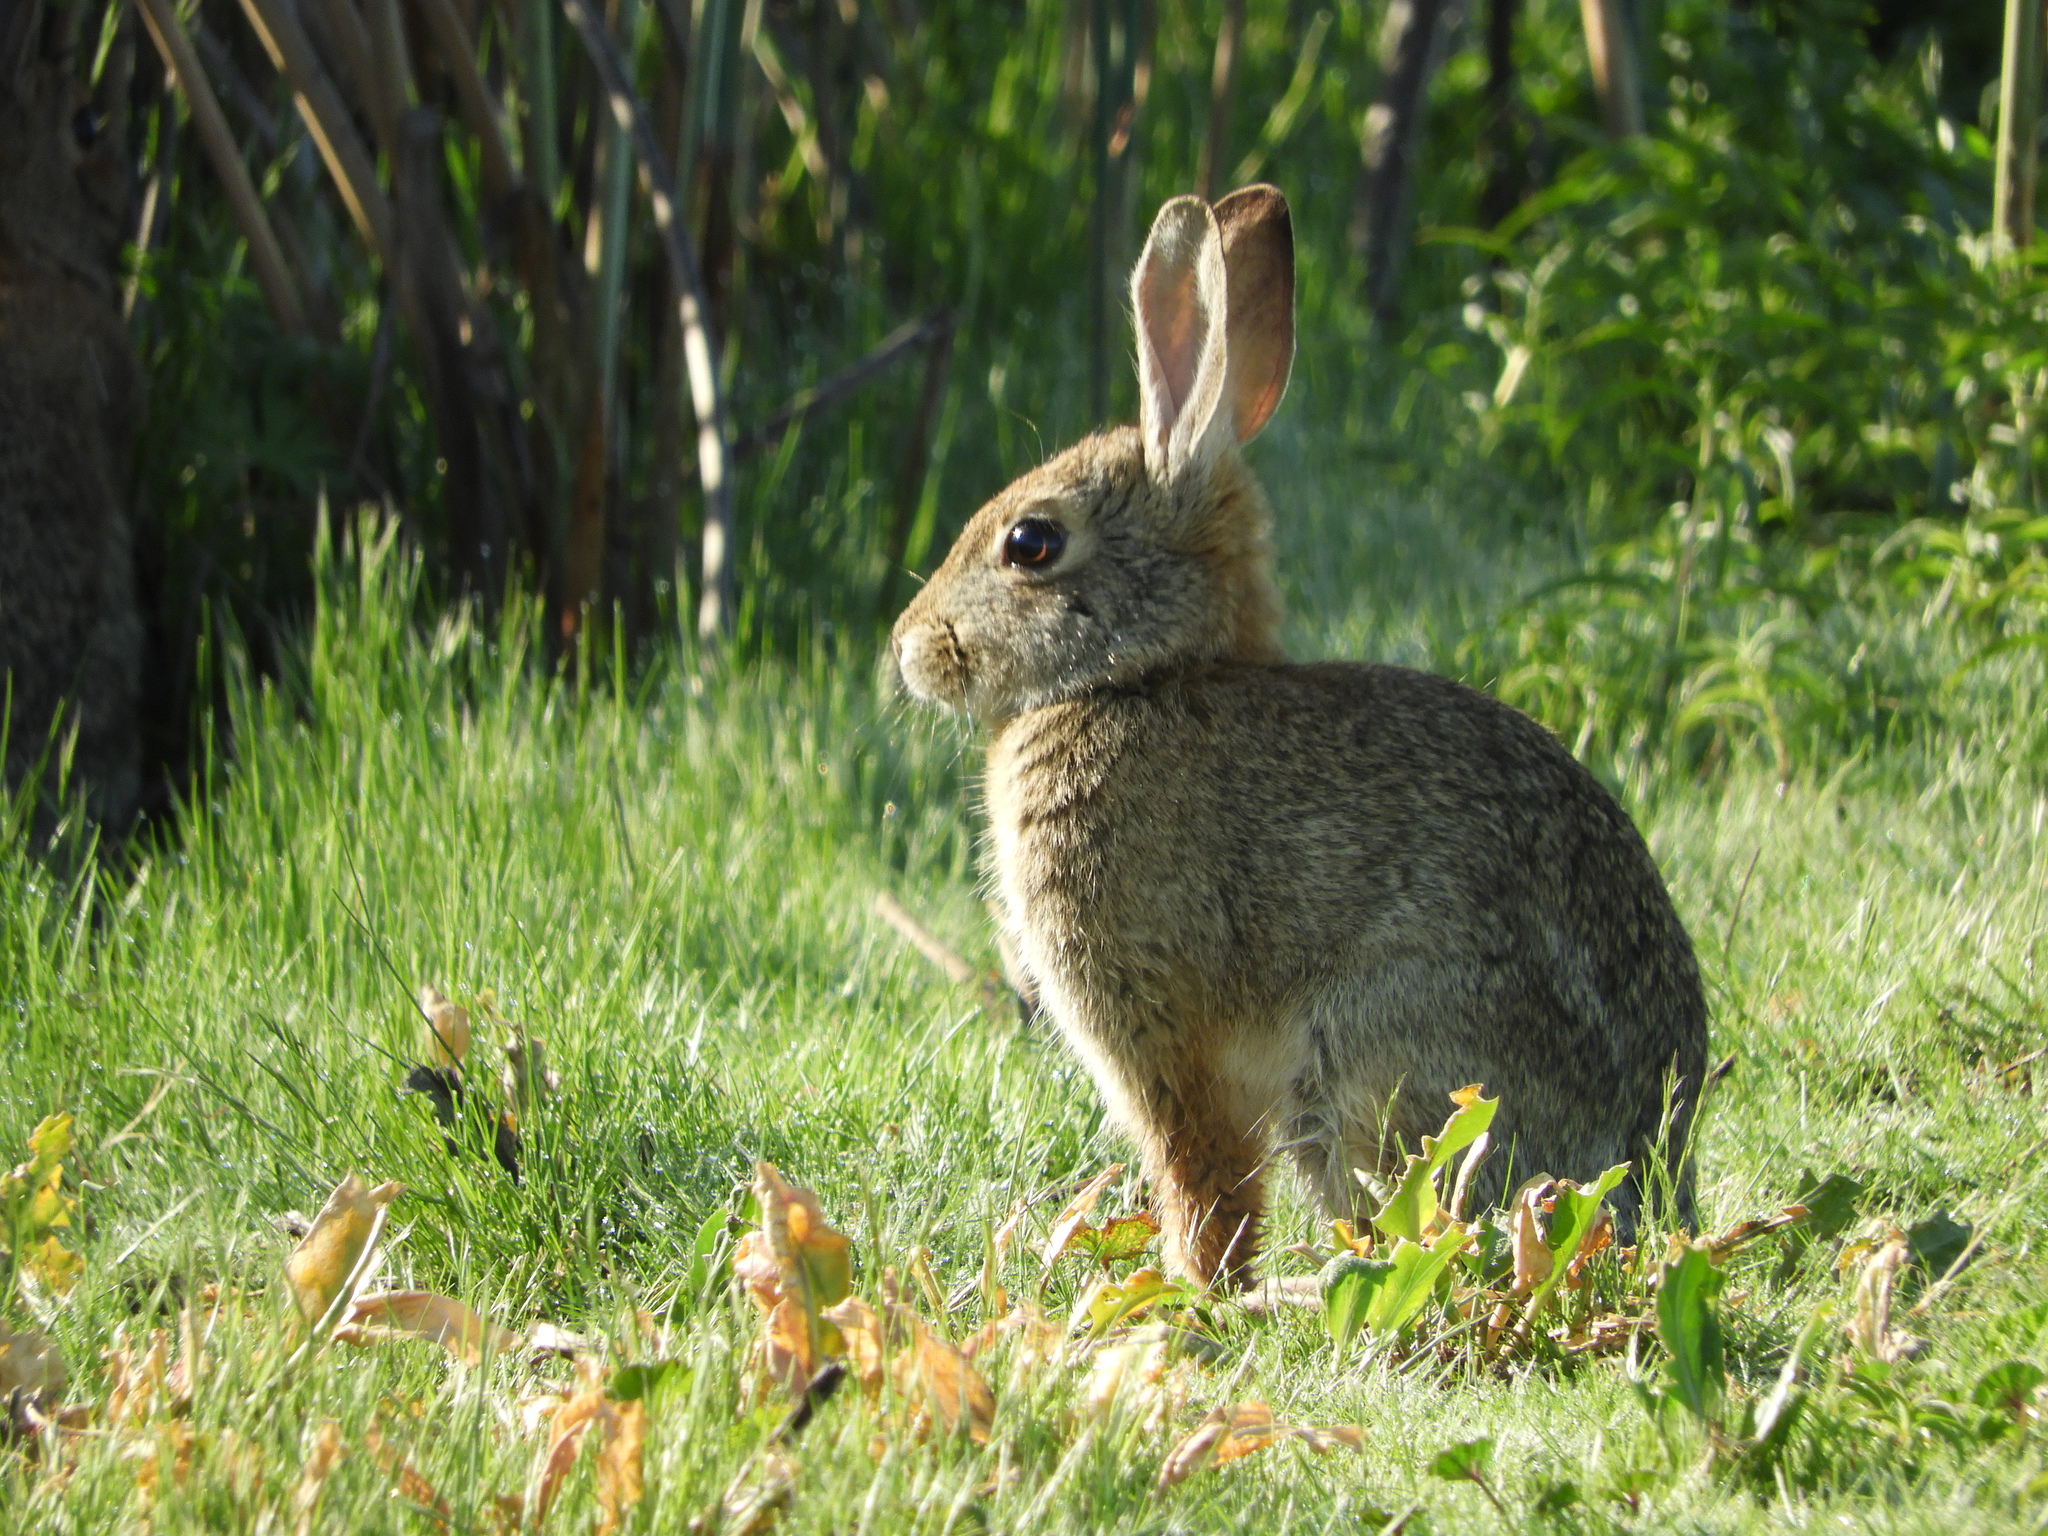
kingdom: Animalia
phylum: Chordata
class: Mammalia
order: Lagomorpha
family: Leporidae
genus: Sylvilagus
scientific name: Sylvilagus audubonii
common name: Desert cottontail
